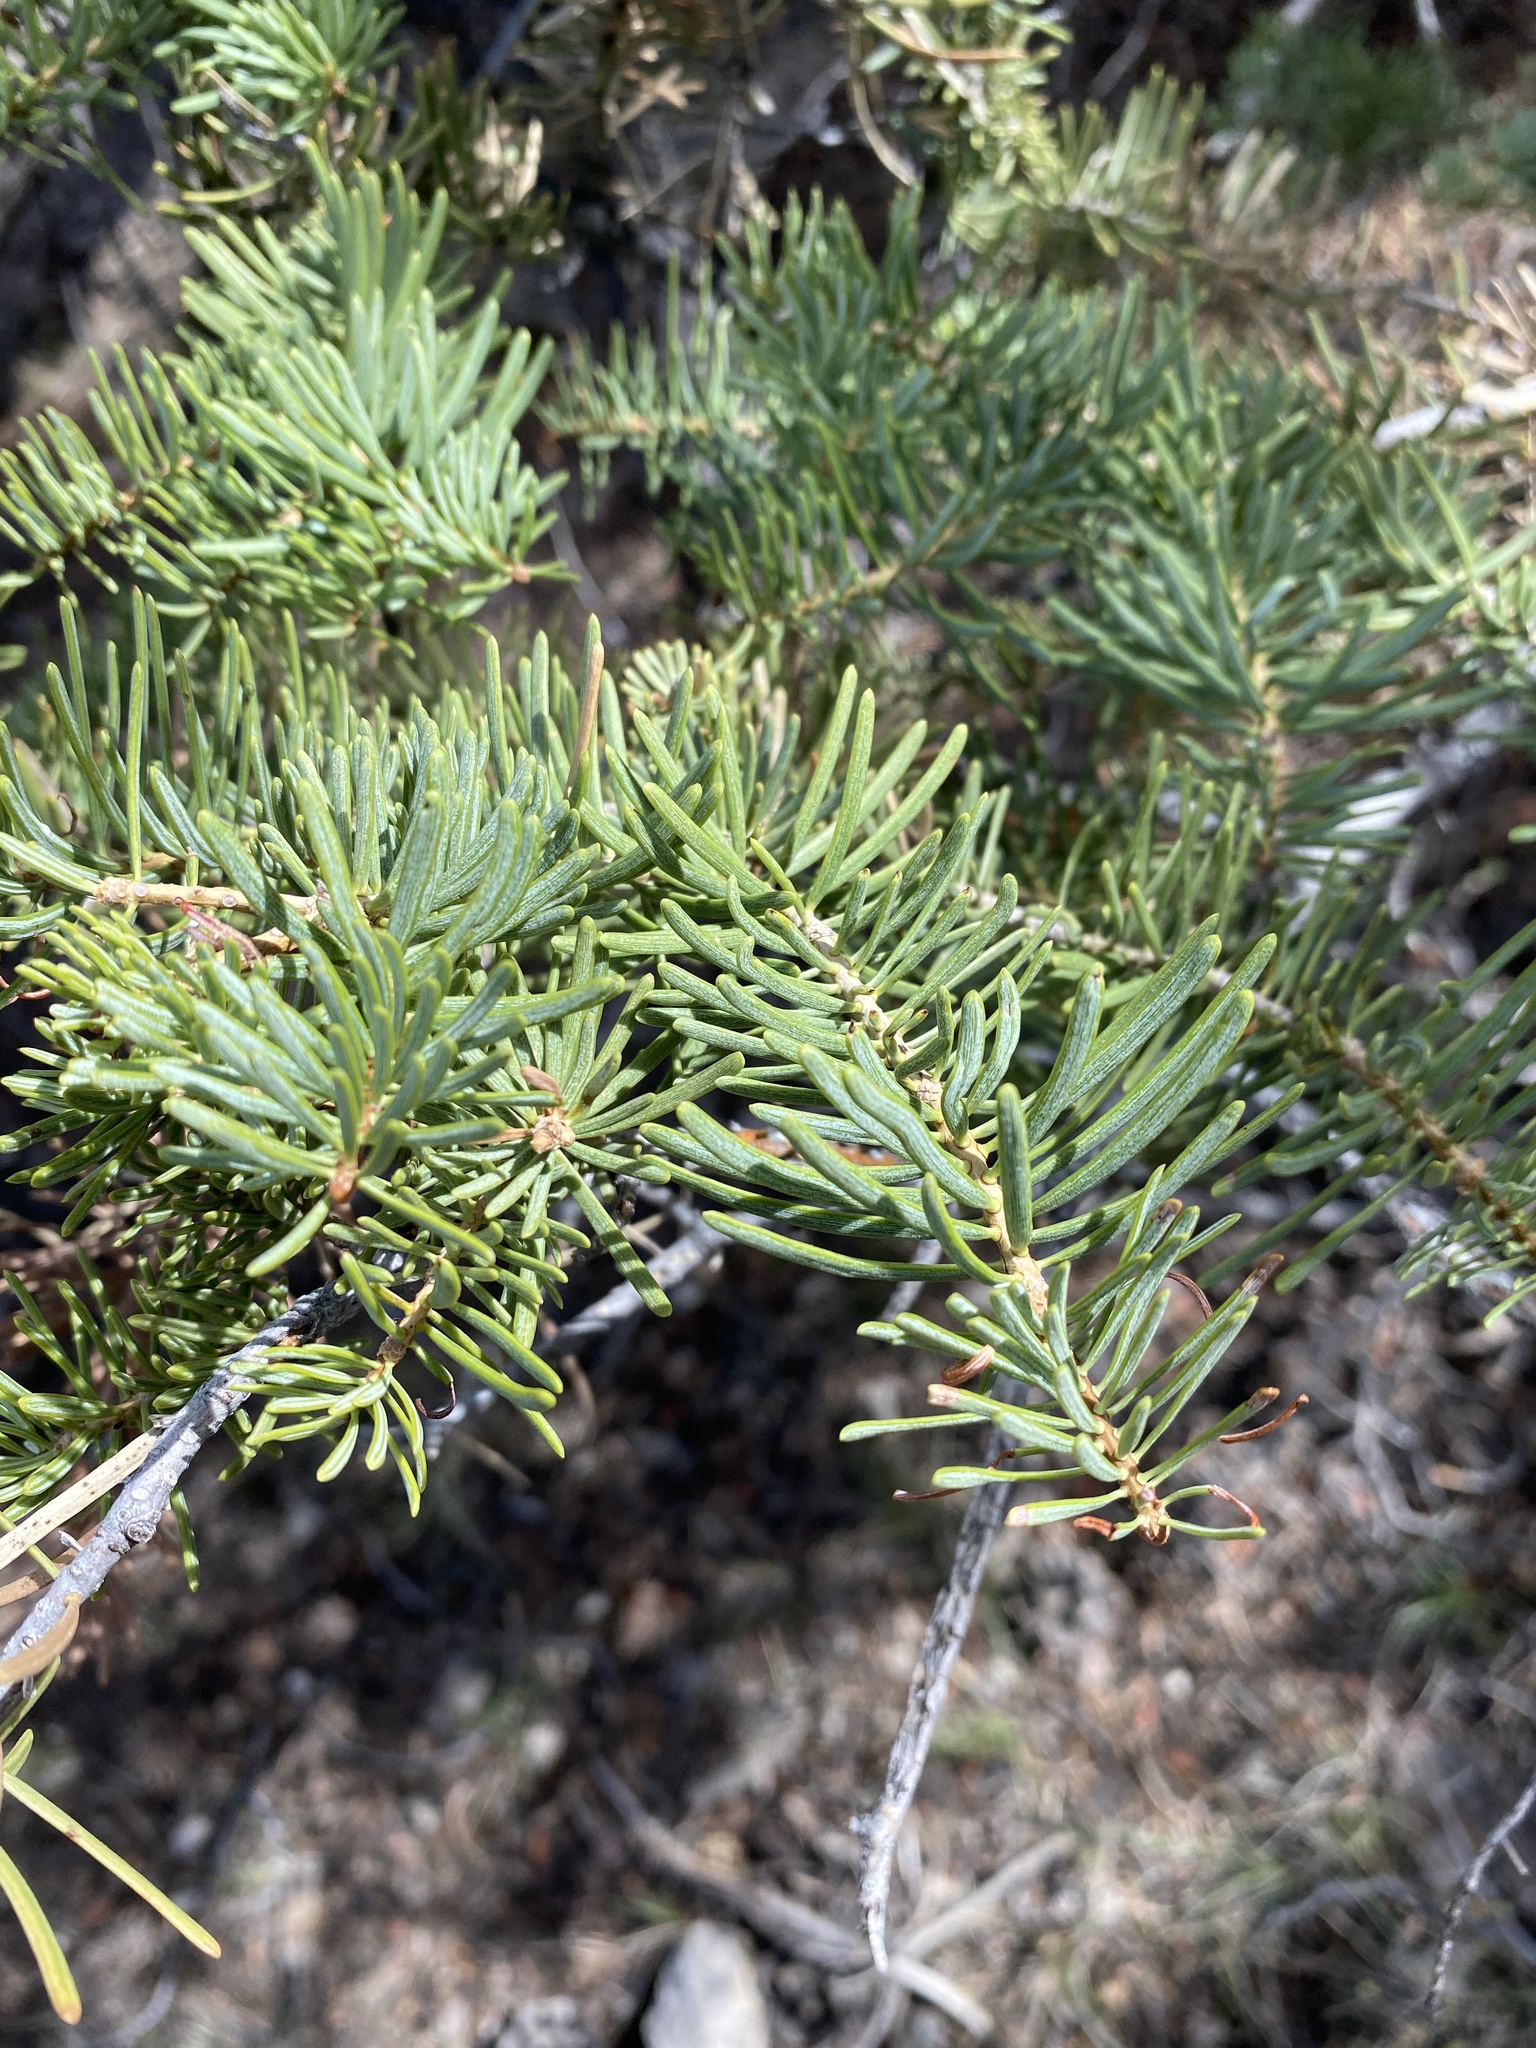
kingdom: Plantae
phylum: Tracheophyta
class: Pinopsida
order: Pinales
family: Pinaceae
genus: Abies
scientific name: Abies concolor
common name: Colorado fir
